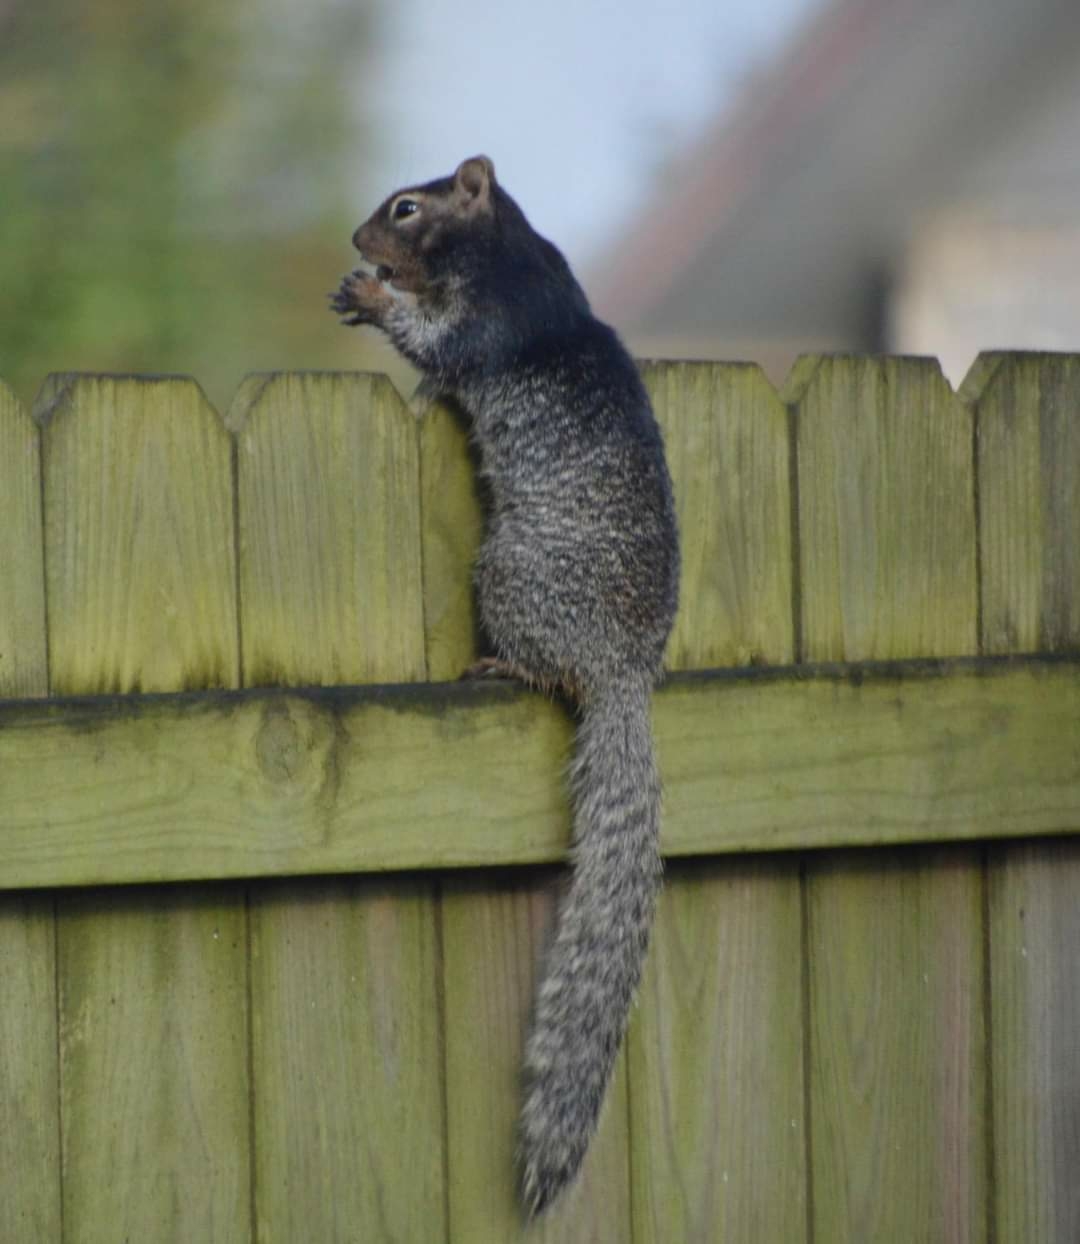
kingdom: Animalia
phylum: Chordata
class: Mammalia
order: Rodentia
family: Sciuridae
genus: Otospermophilus
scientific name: Otospermophilus variegatus
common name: Rock squirrel
